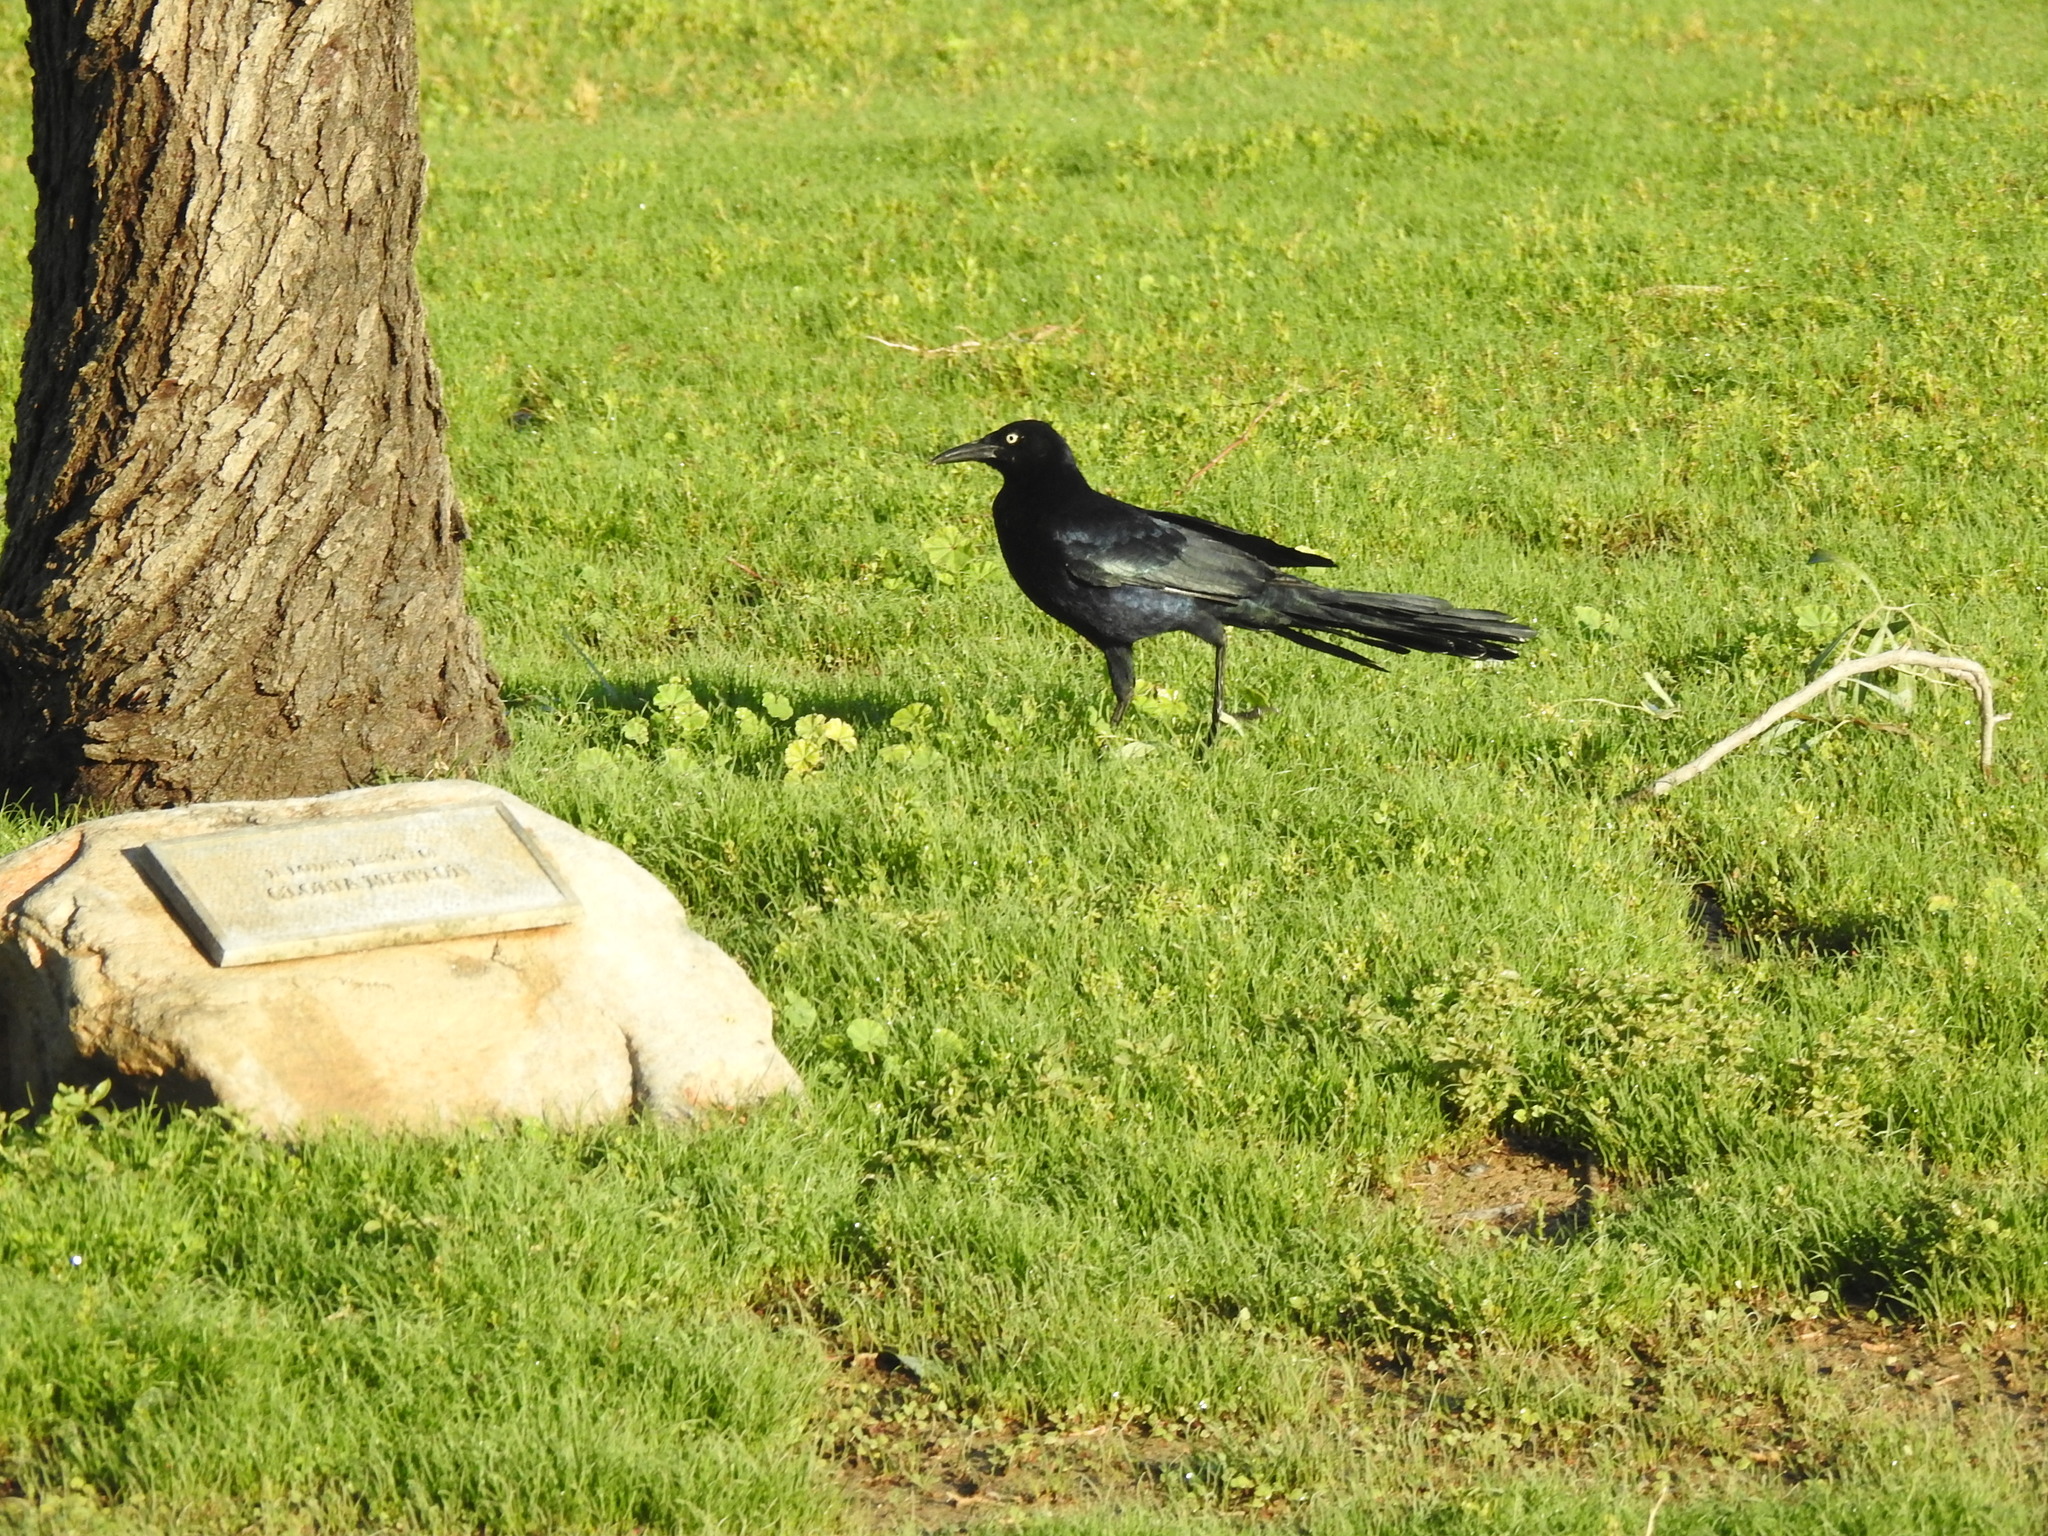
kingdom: Animalia
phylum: Chordata
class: Aves
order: Passeriformes
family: Icteridae
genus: Quiscalus
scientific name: Quiscalus mexicanus
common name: Great-tailed grackle
